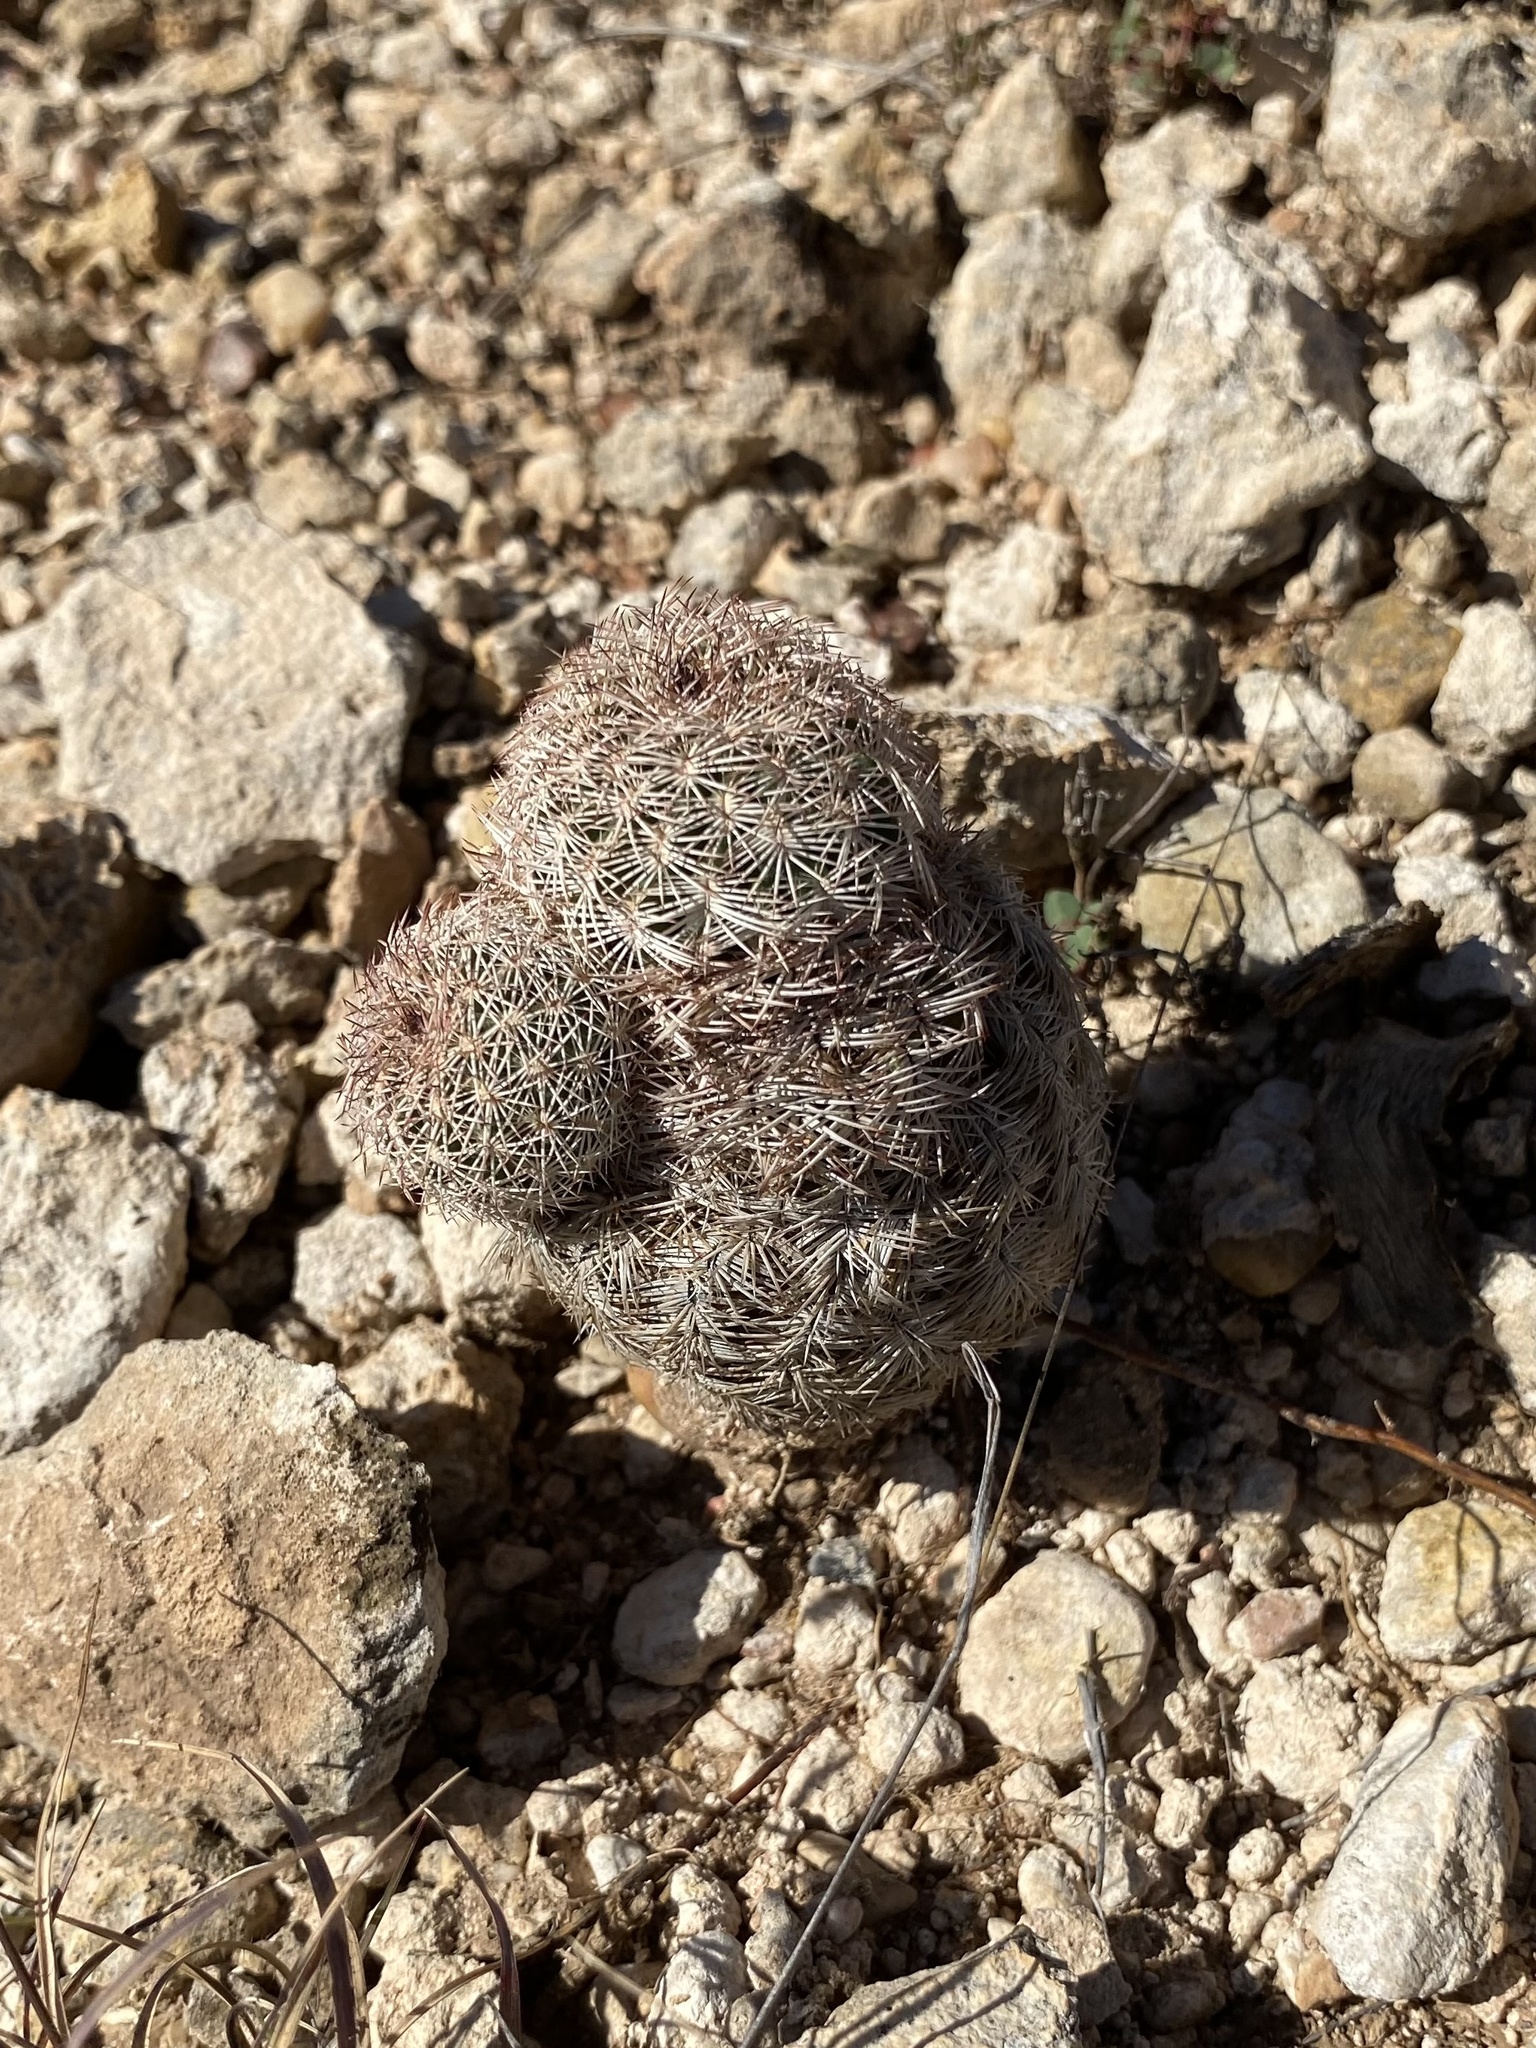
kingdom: Plantae
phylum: Tracheophyta
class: Magnoliopsida
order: Caryophyllales
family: Cactaceae
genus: Echinocereus
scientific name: Echinocereus reichenbachii
